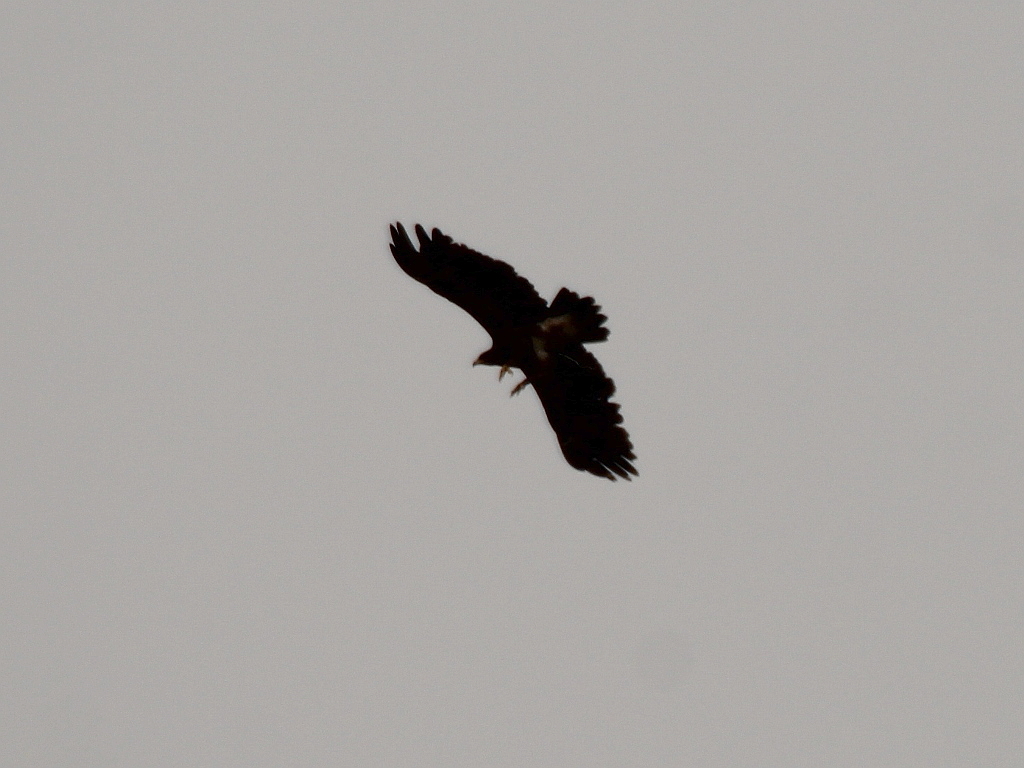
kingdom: Animalia
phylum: Chordata
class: Aves
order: Accipitriformes
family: Accipitridae
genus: Aquila
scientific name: Aquila clanga
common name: Greater spotted eagle
